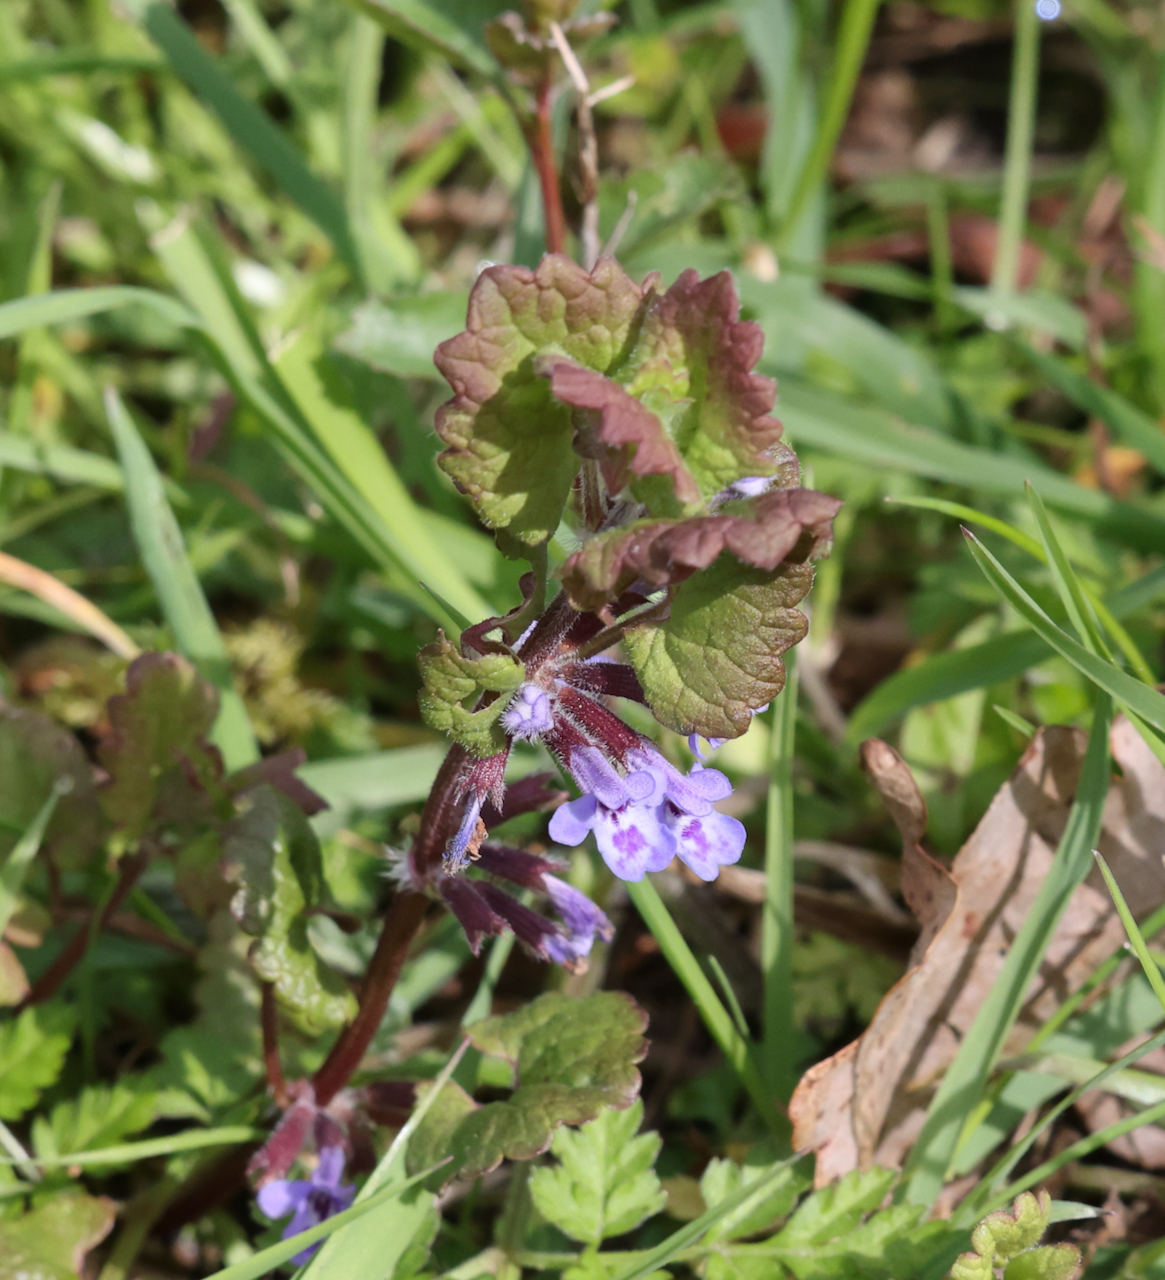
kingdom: Plantae
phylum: Tracheophyta
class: Magnoliopsida
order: Lamiales
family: Lamiaceae
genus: Glechoma
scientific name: Glechoma hederacea
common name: Ground ivy
